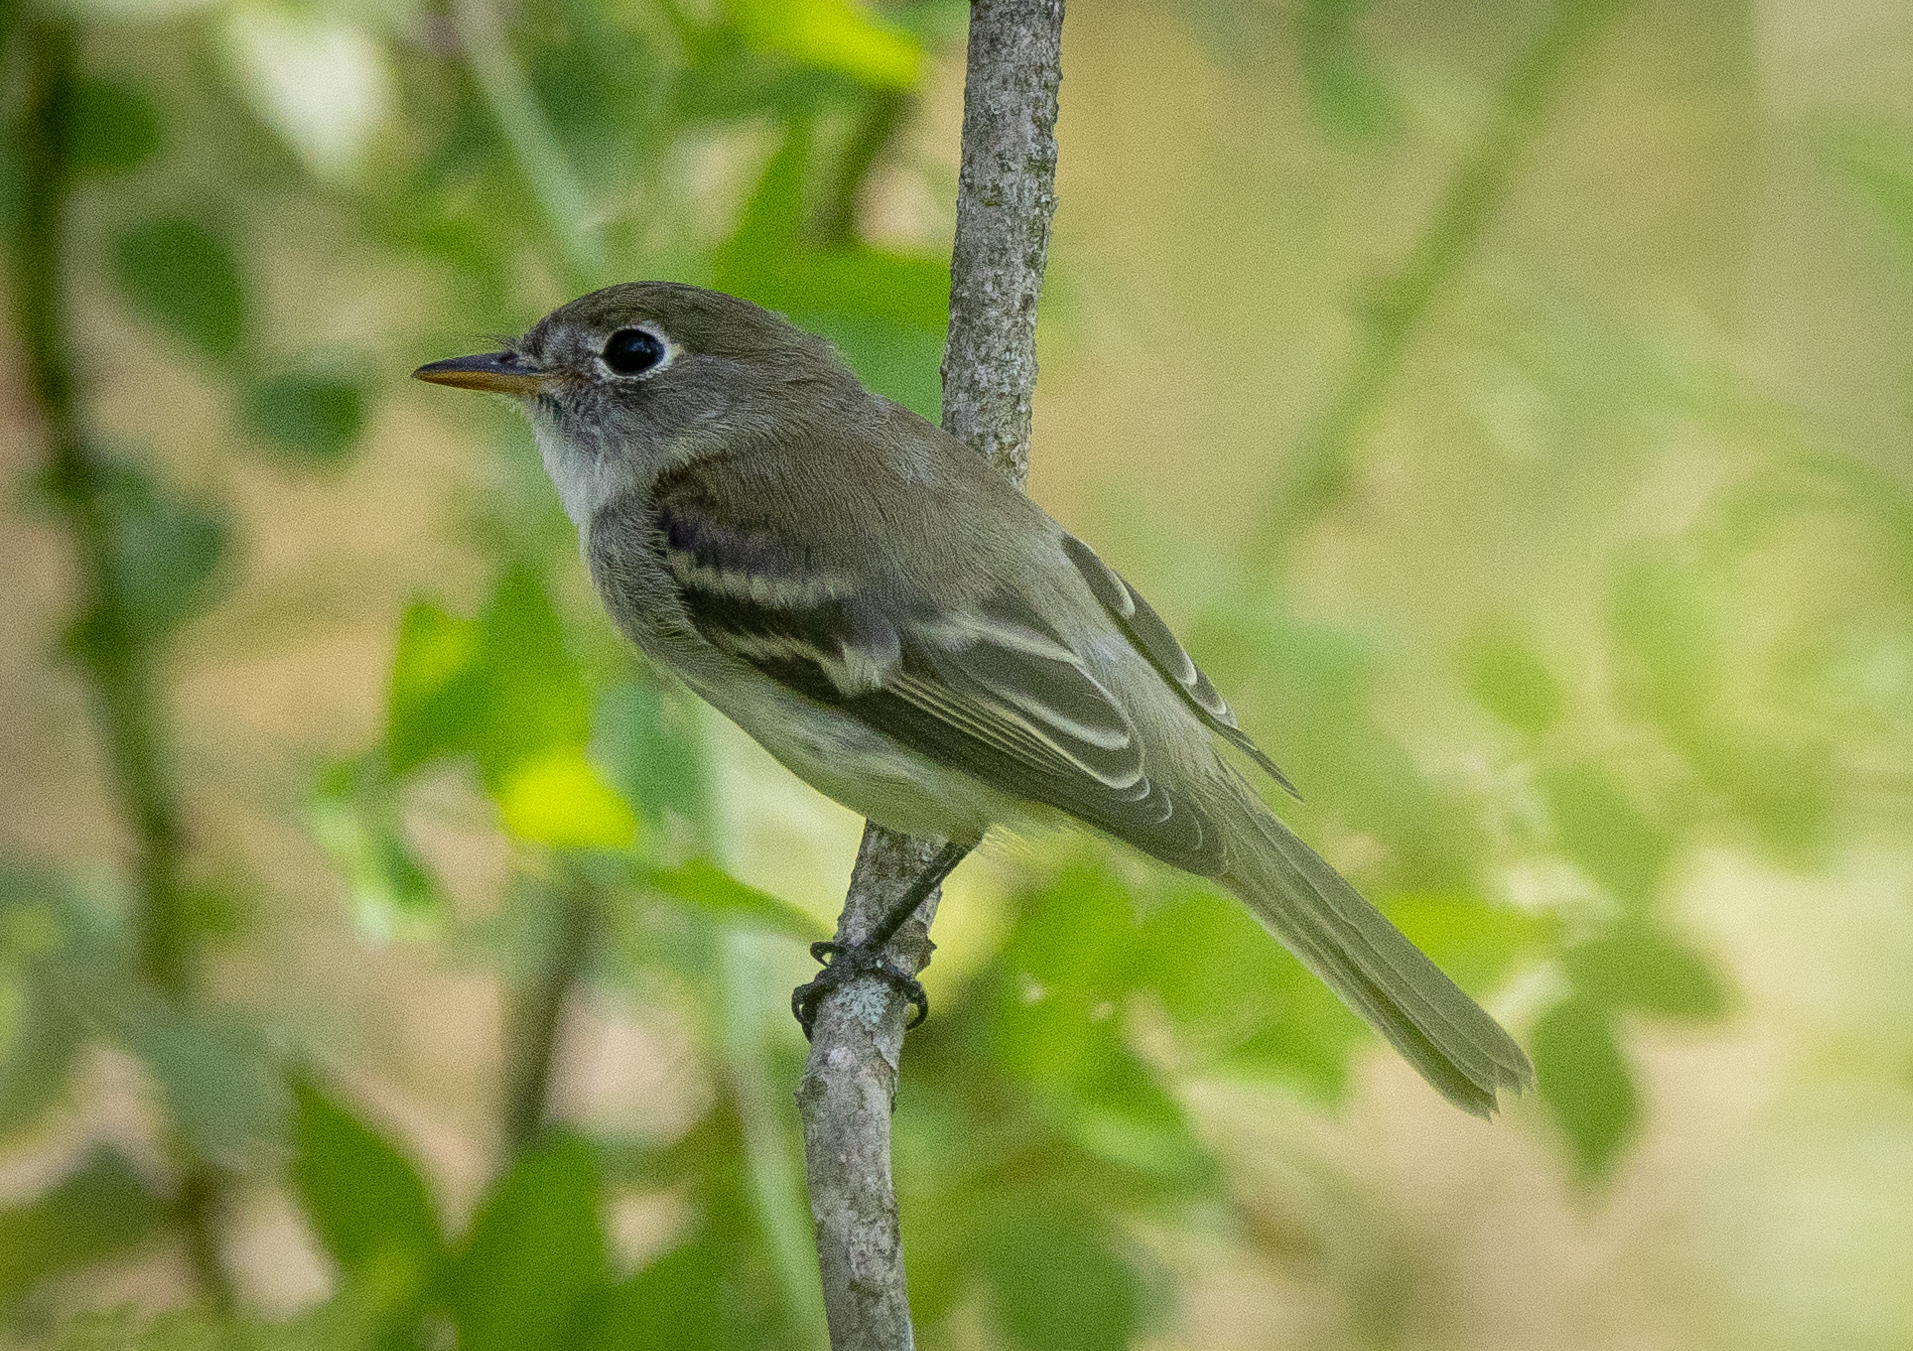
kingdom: Animalia
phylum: Chordata
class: Aves
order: Passeriformes
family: Tyrannidae
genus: Empidonax
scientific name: Empidonax minimus
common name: Least flycatcher
